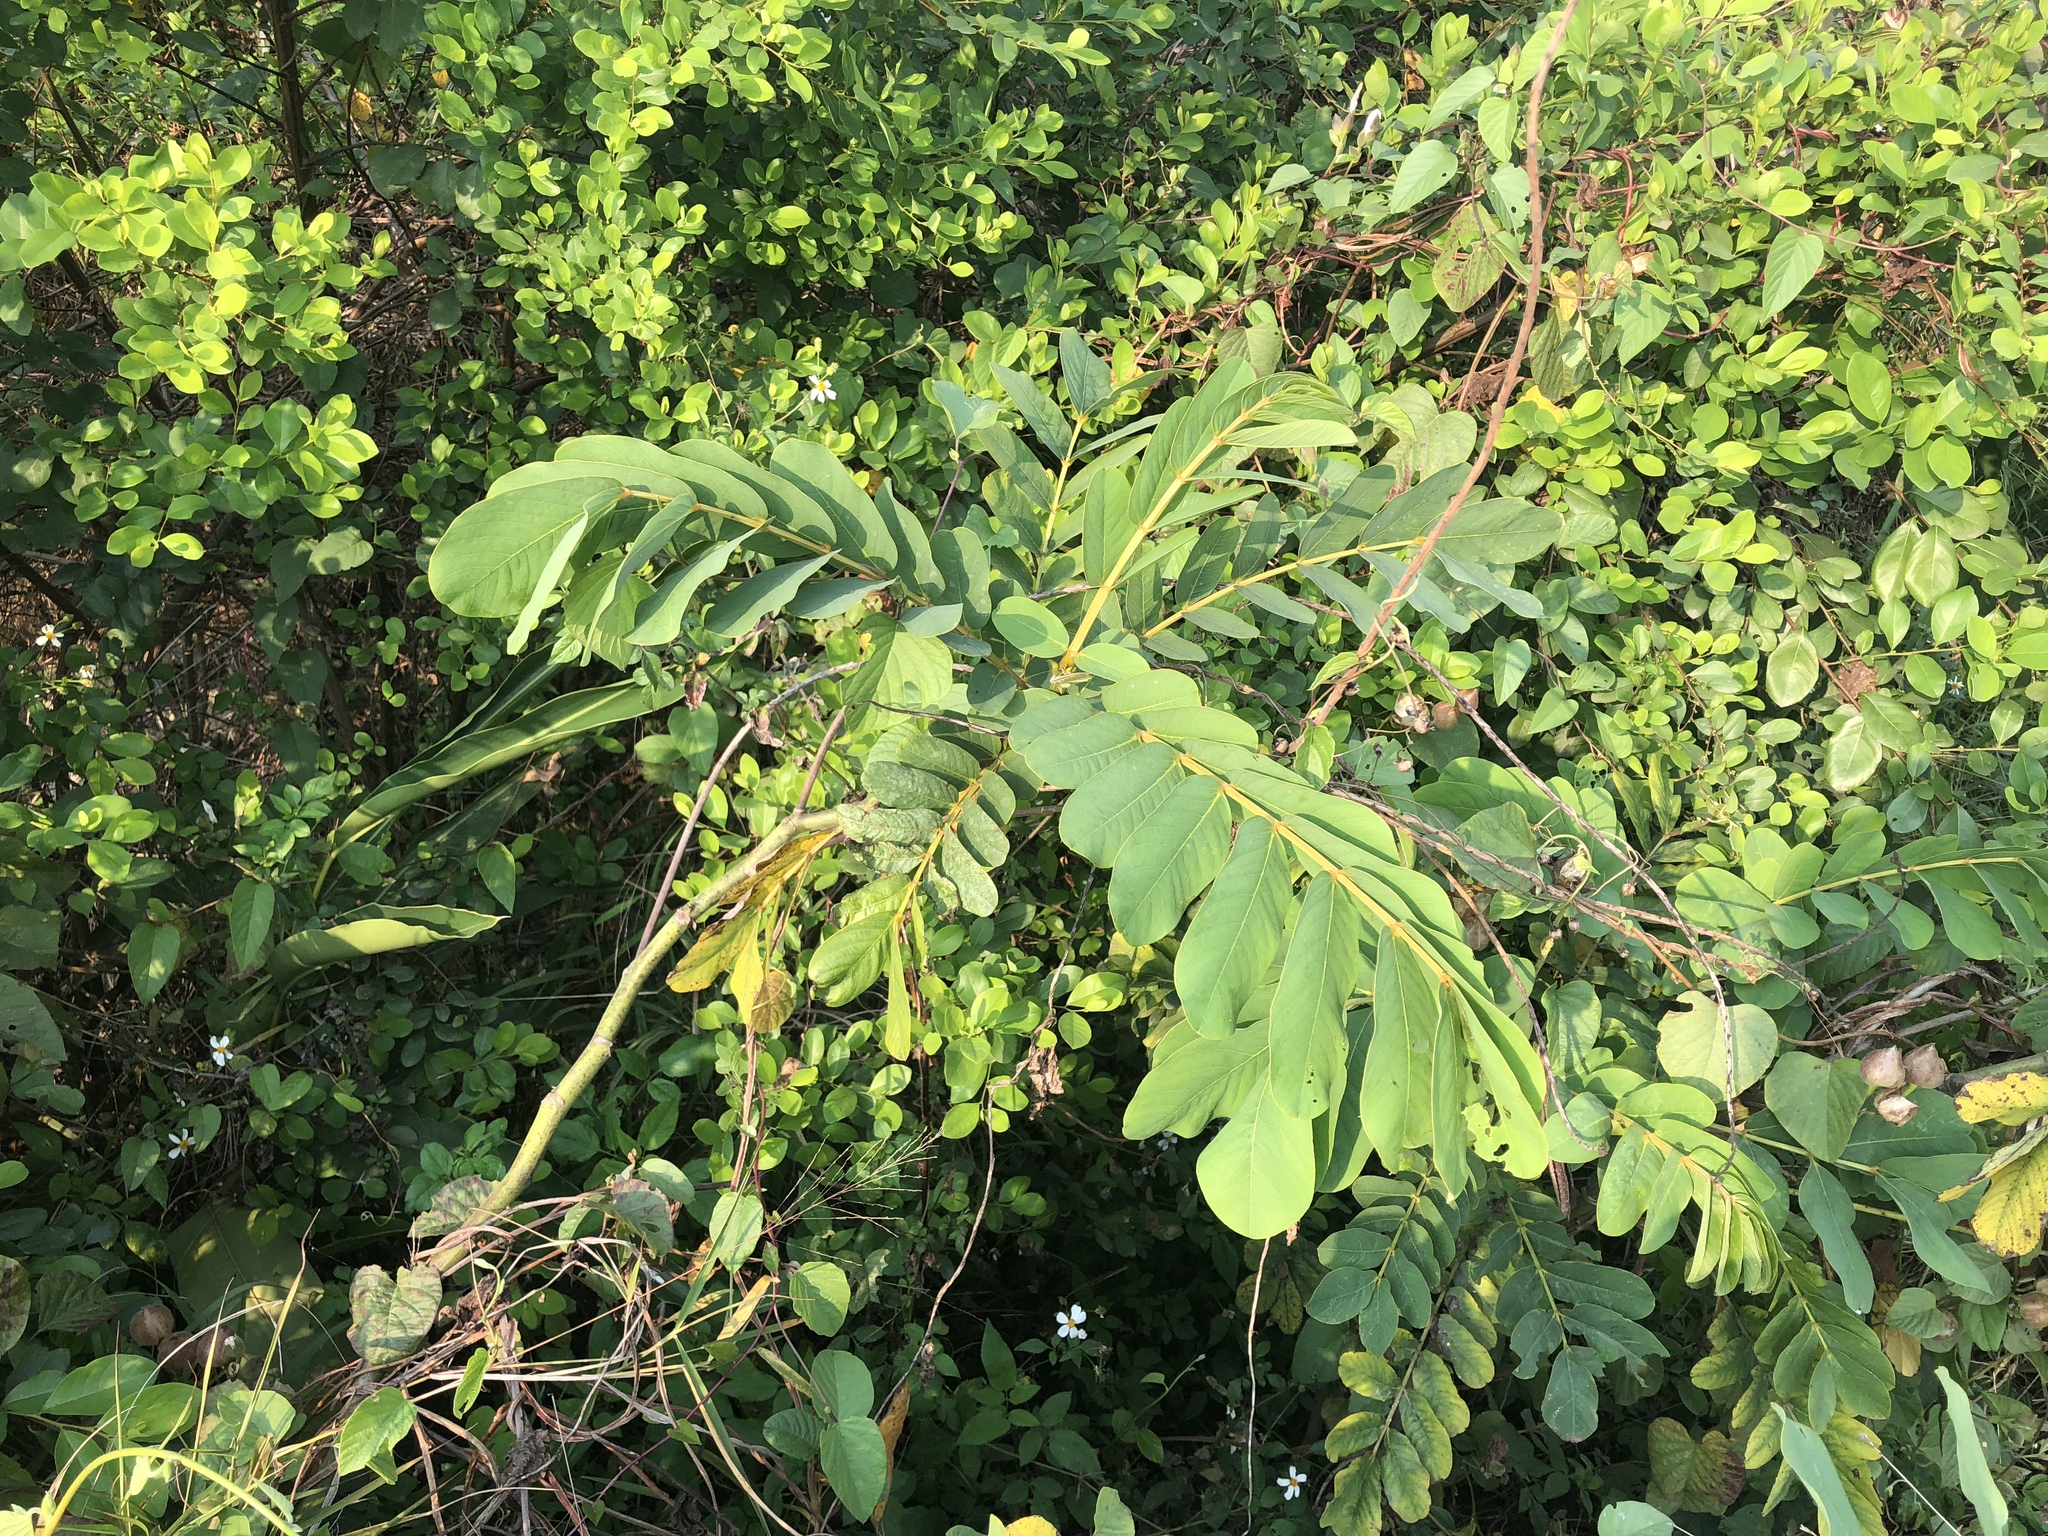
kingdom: Plantae
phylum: Tracheophyta
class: Magnoliopsida
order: Fabales
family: Fabaceae
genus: Senna
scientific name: Senna alata
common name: Emperor's candlesticks
